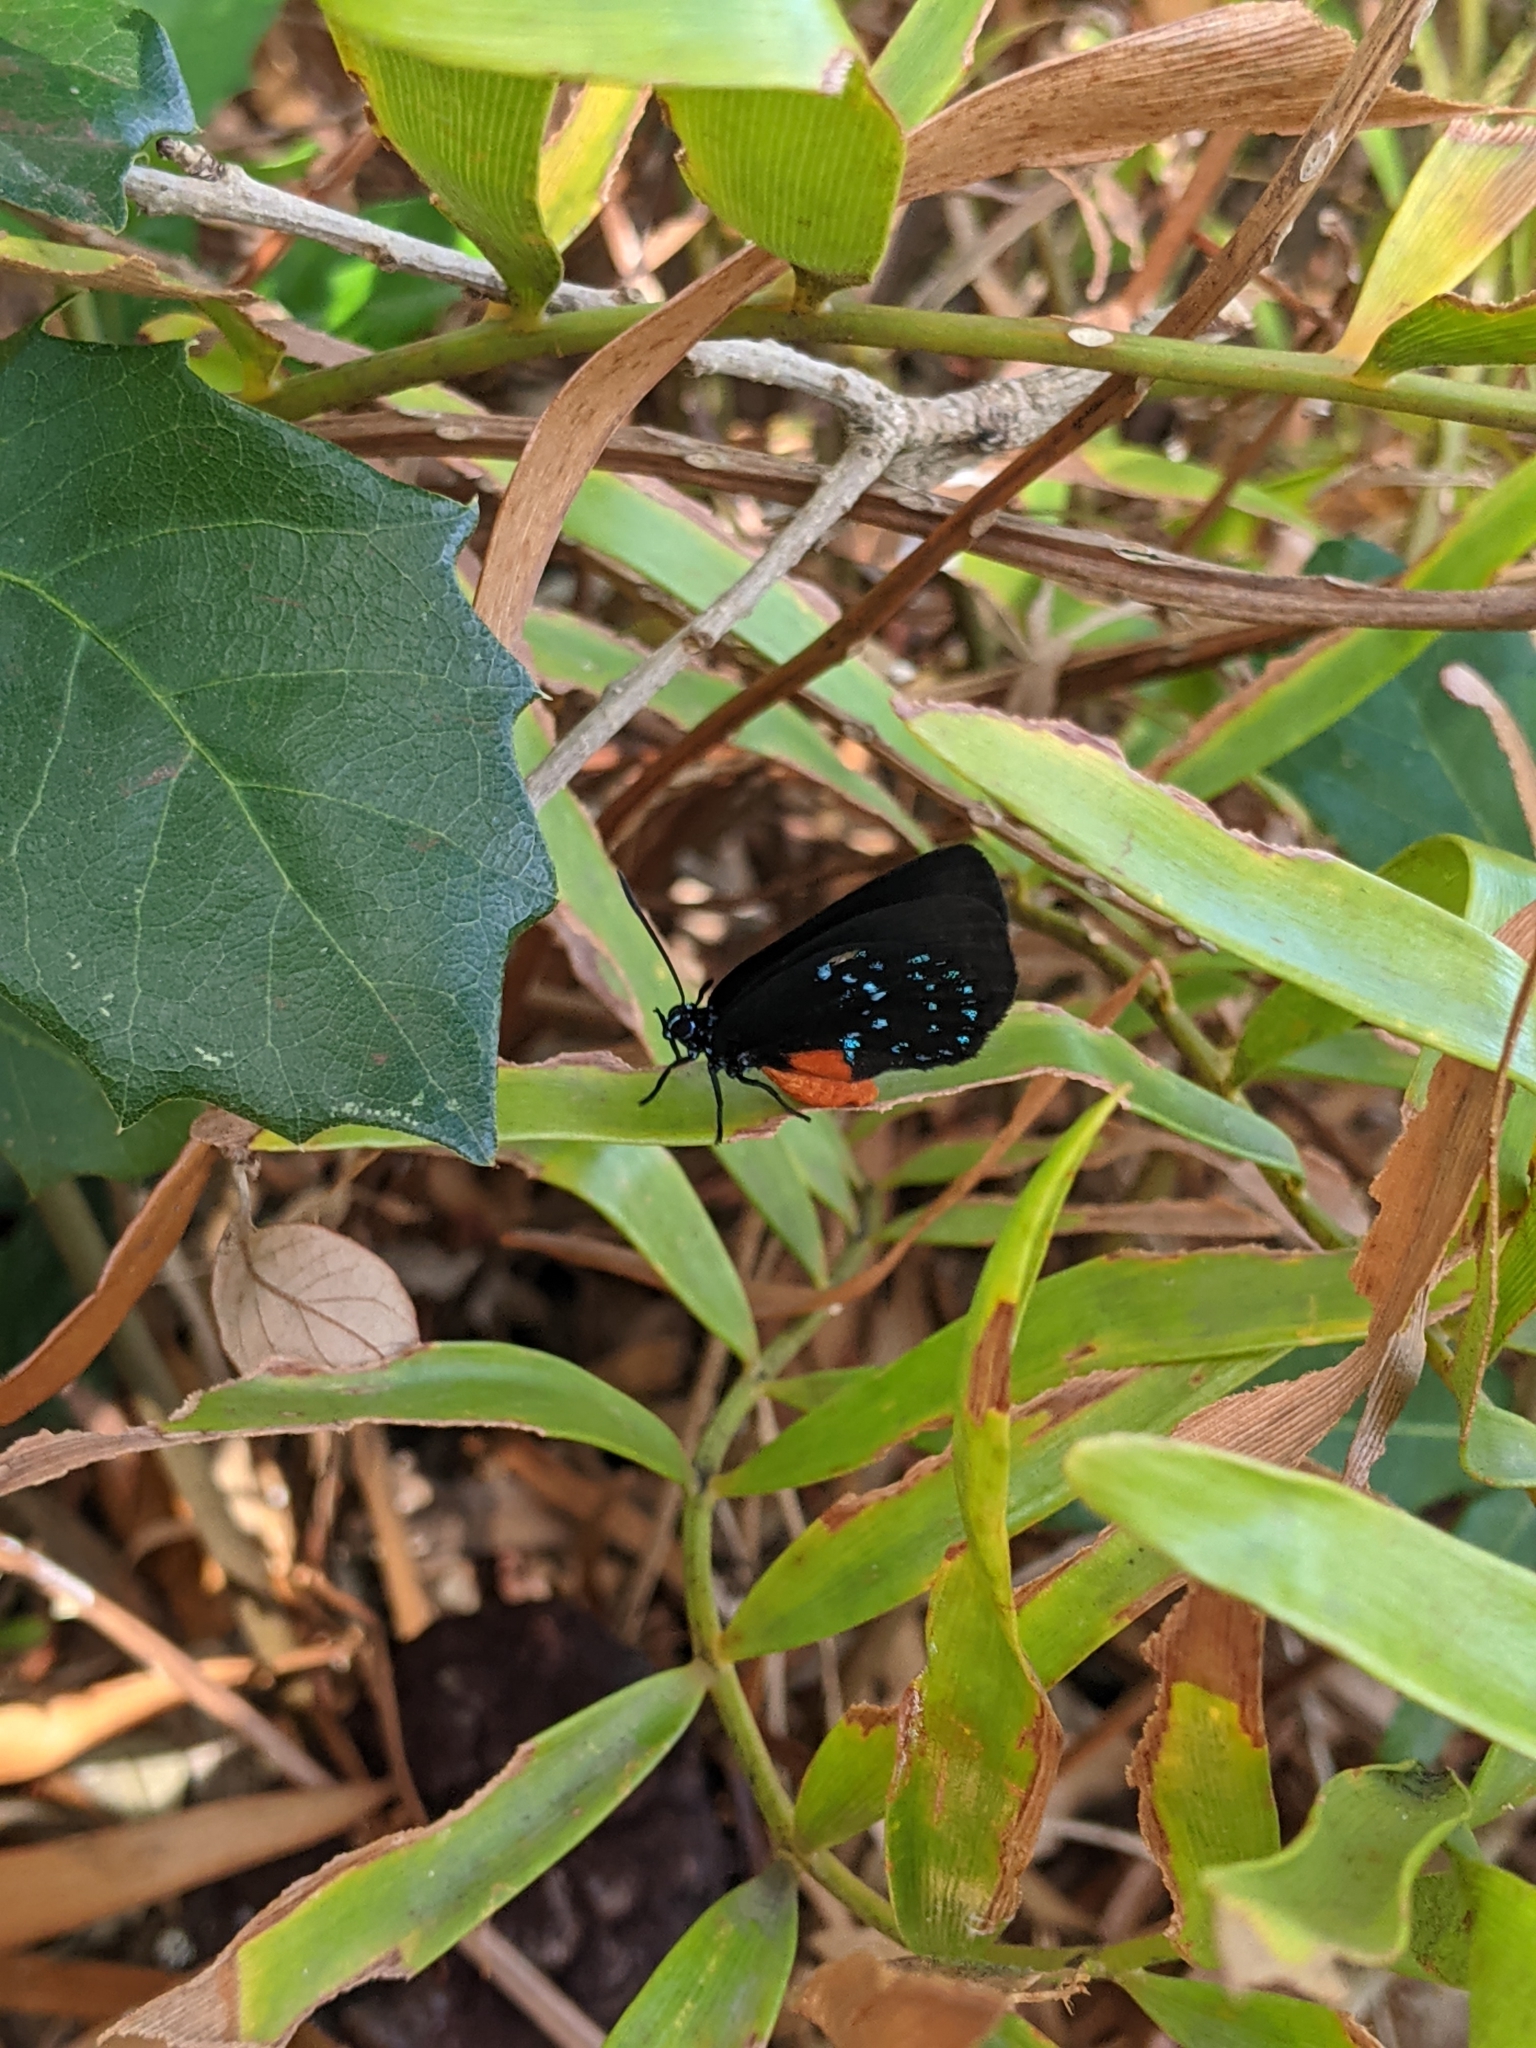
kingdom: Animalia
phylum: Arthropoda
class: Insecta
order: Lepidoptera
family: Lycaenidae
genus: Eumaeus
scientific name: Eumaeus atala
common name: Atala
